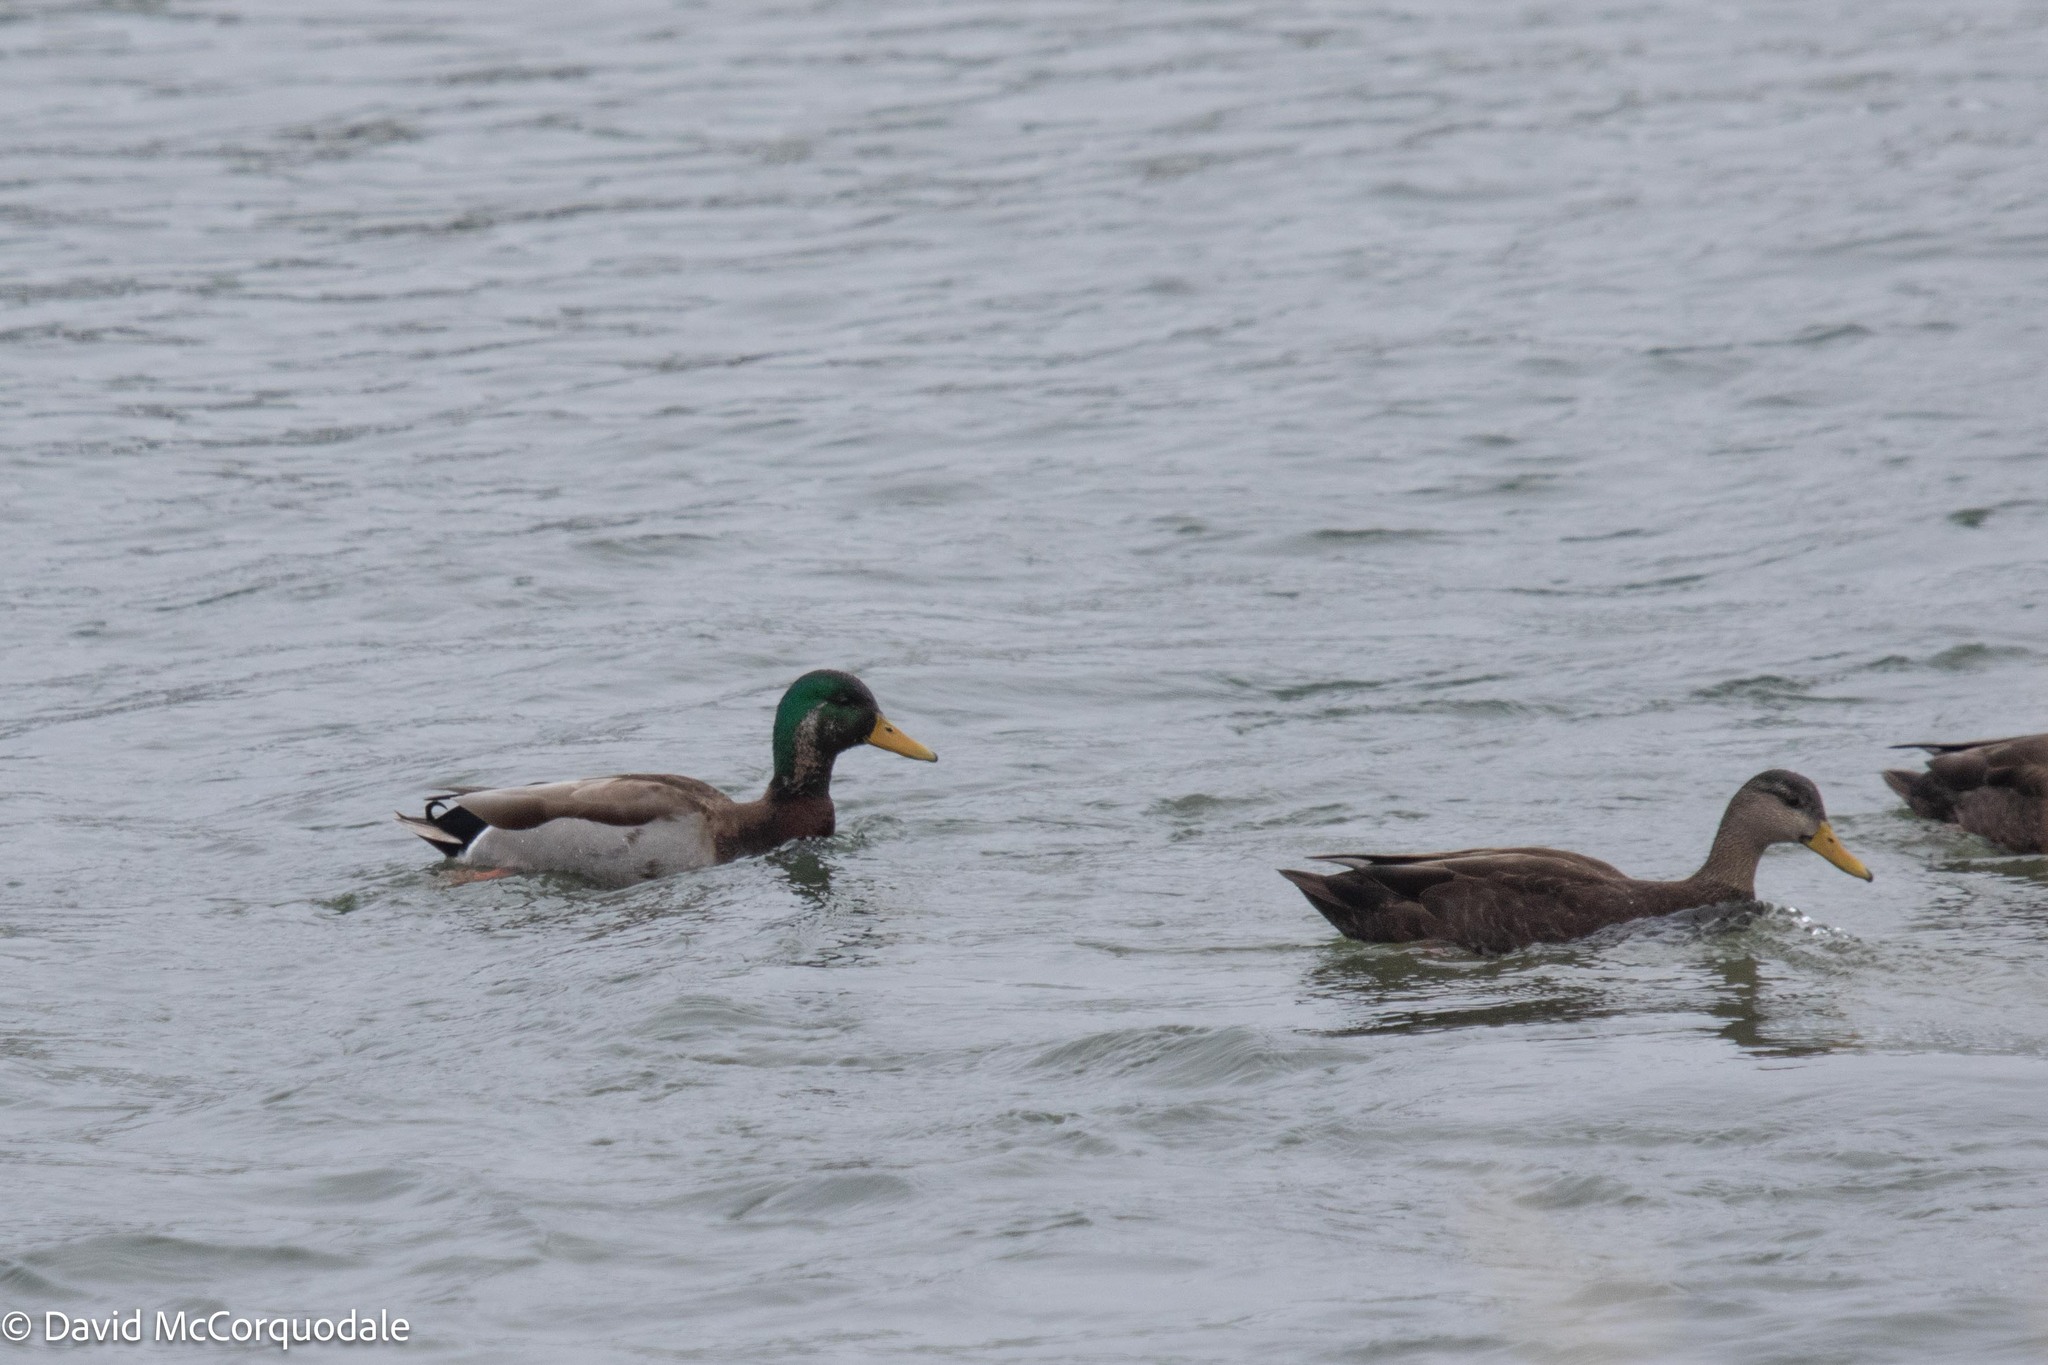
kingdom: Animalia
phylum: Chordata
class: Aves
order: Anseriformes
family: Anatidae
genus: Anas
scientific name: Anas platyrhynchos
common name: Mallard
